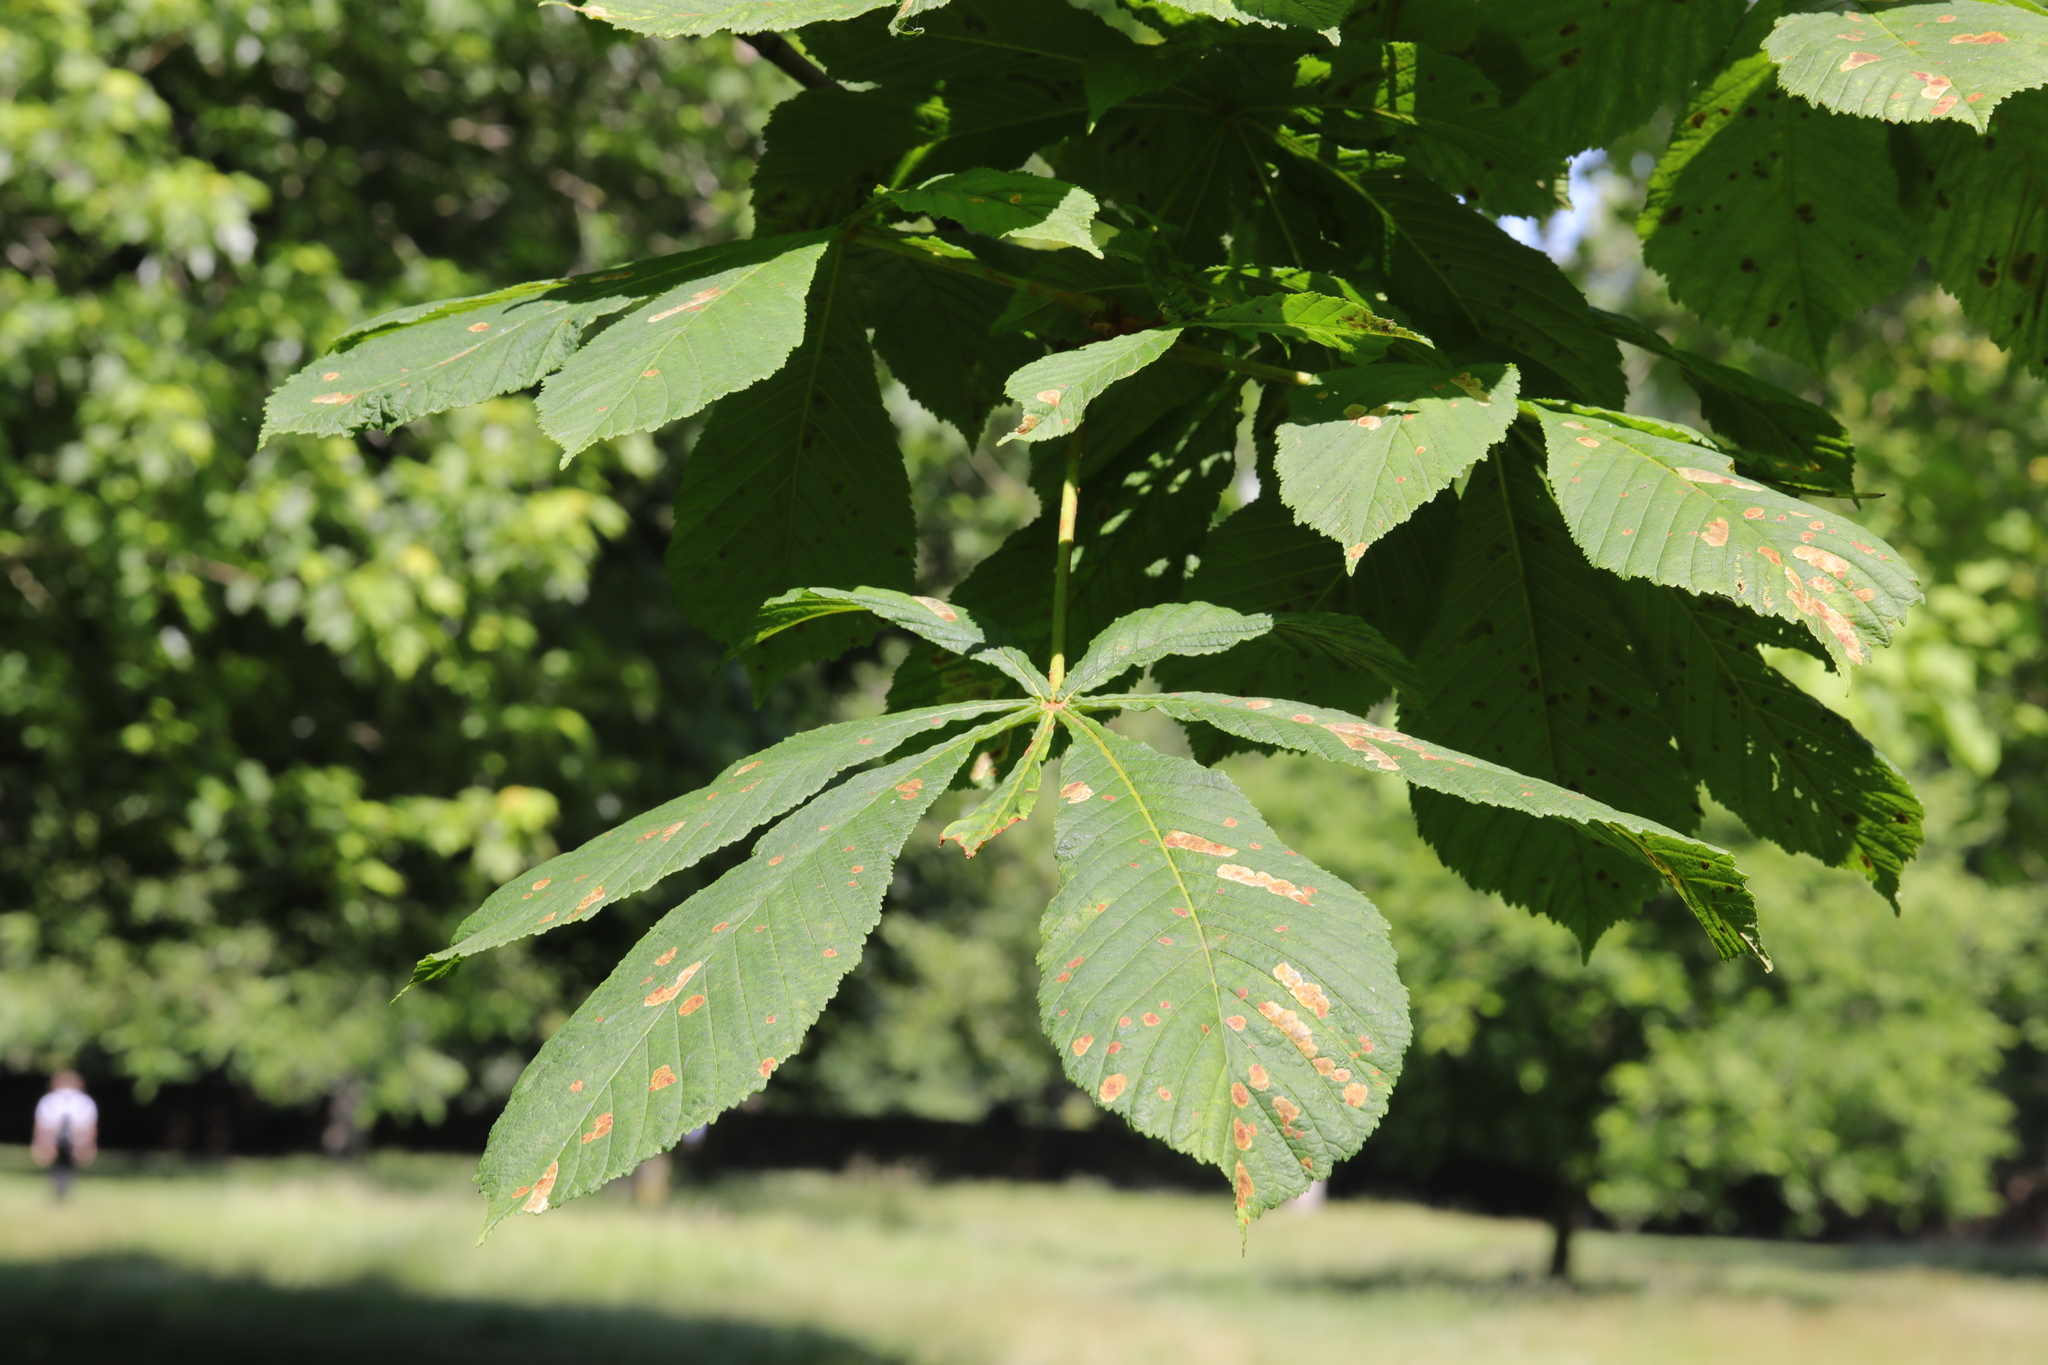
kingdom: Animalia
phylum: Arthropoda
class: Insecta
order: Lepidoptera
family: Gracillariidae
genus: Cameraria
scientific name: Cameraria ohridella
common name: Horse-chestnut leaf-miner
